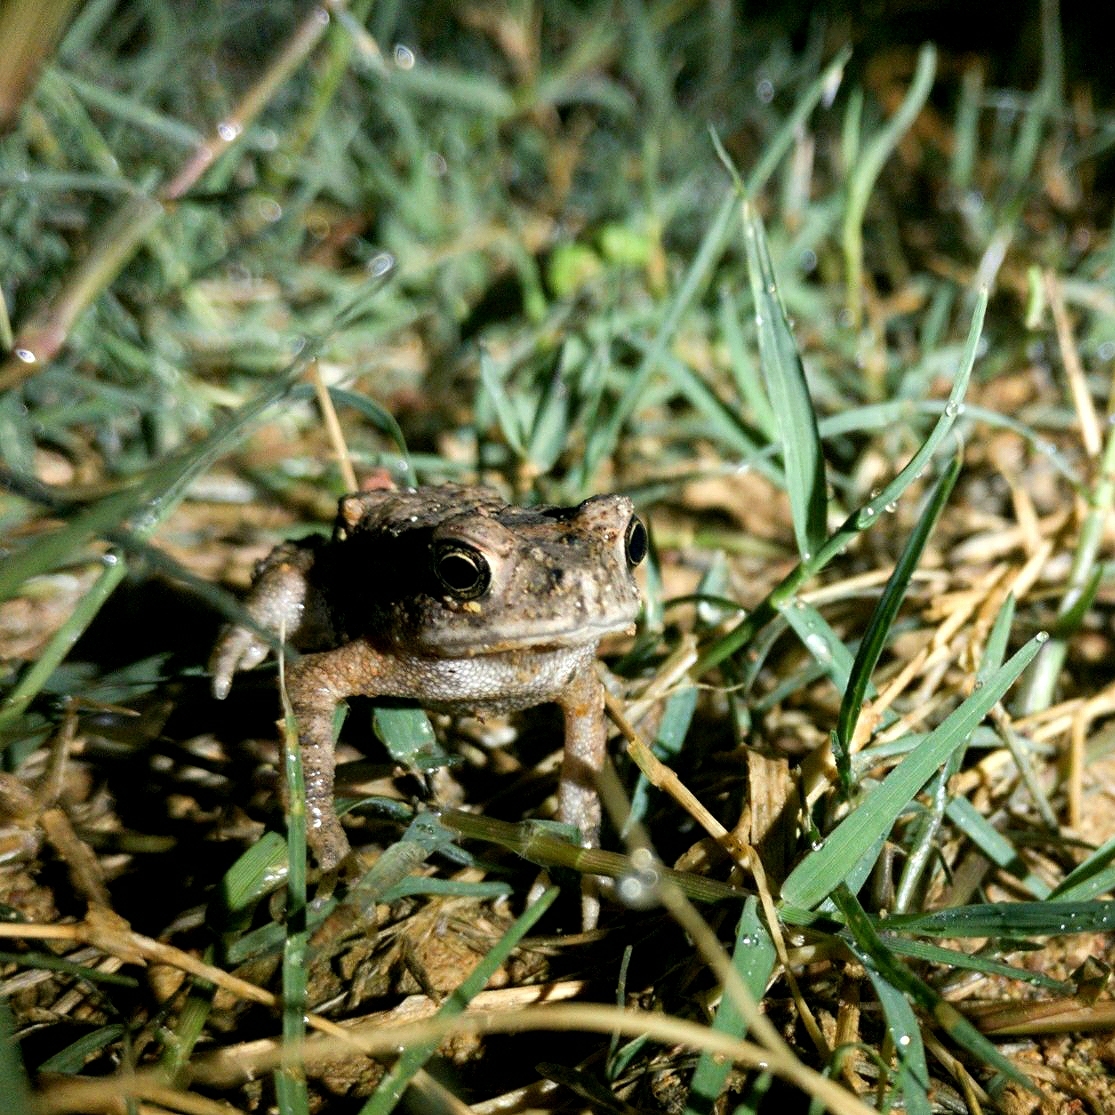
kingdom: Animalia
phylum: Chordata
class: Amphibia
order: Anura
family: Bufonidae
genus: Duttaphrynus
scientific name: Duttaphrynus melanostictus
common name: Common sunda toad
